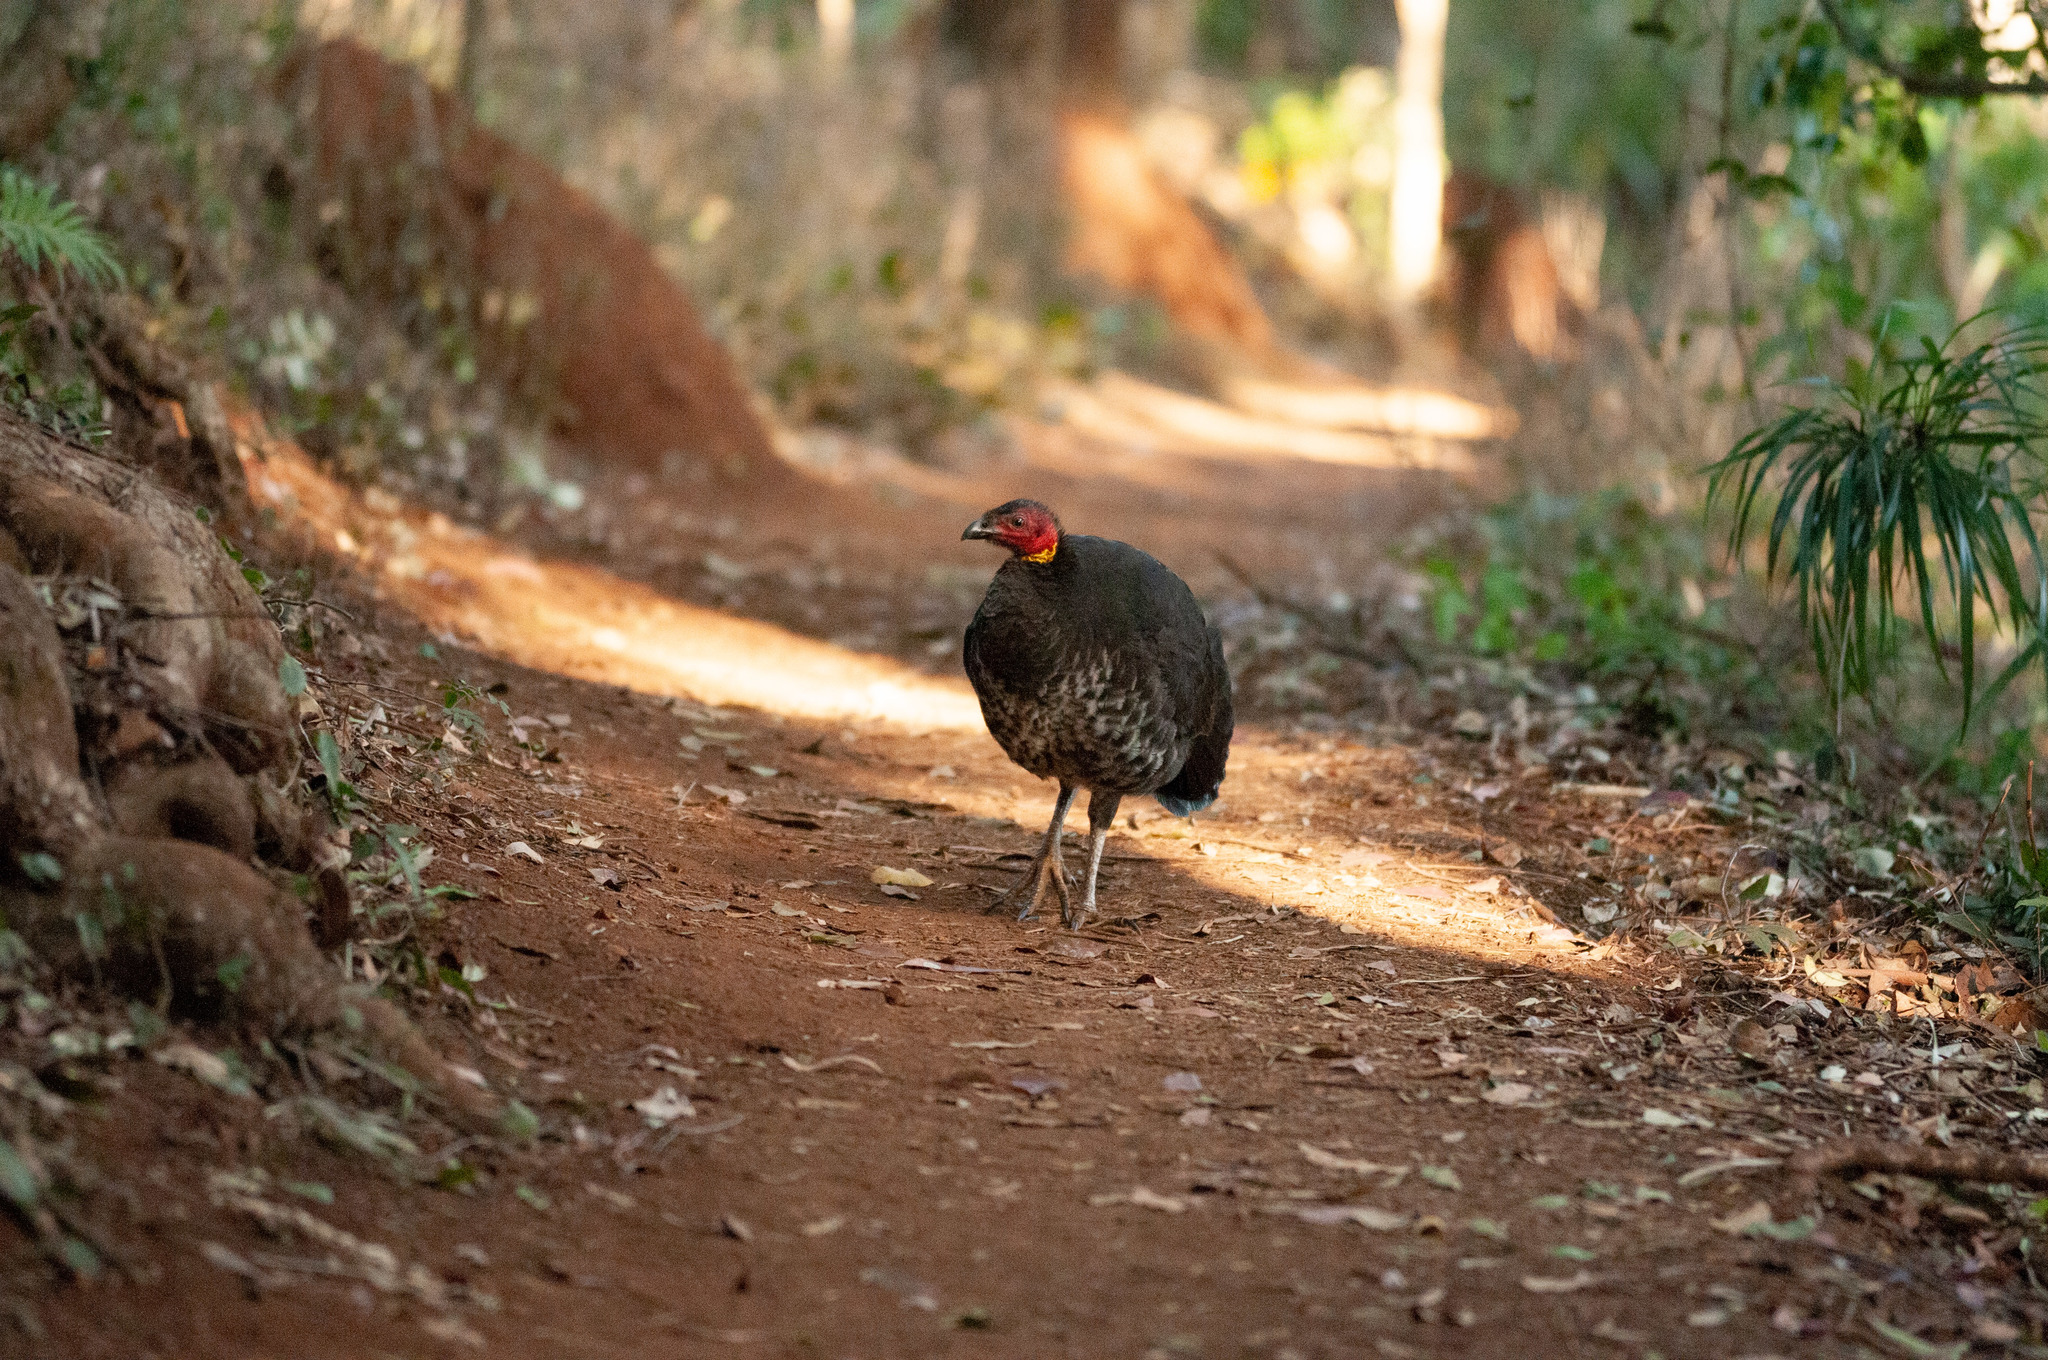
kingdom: Animalia
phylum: Chordata
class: Aves
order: Galliformes
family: Megapodiidae
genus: Alectura
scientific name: Alectura lathami
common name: Australian brushturkey
